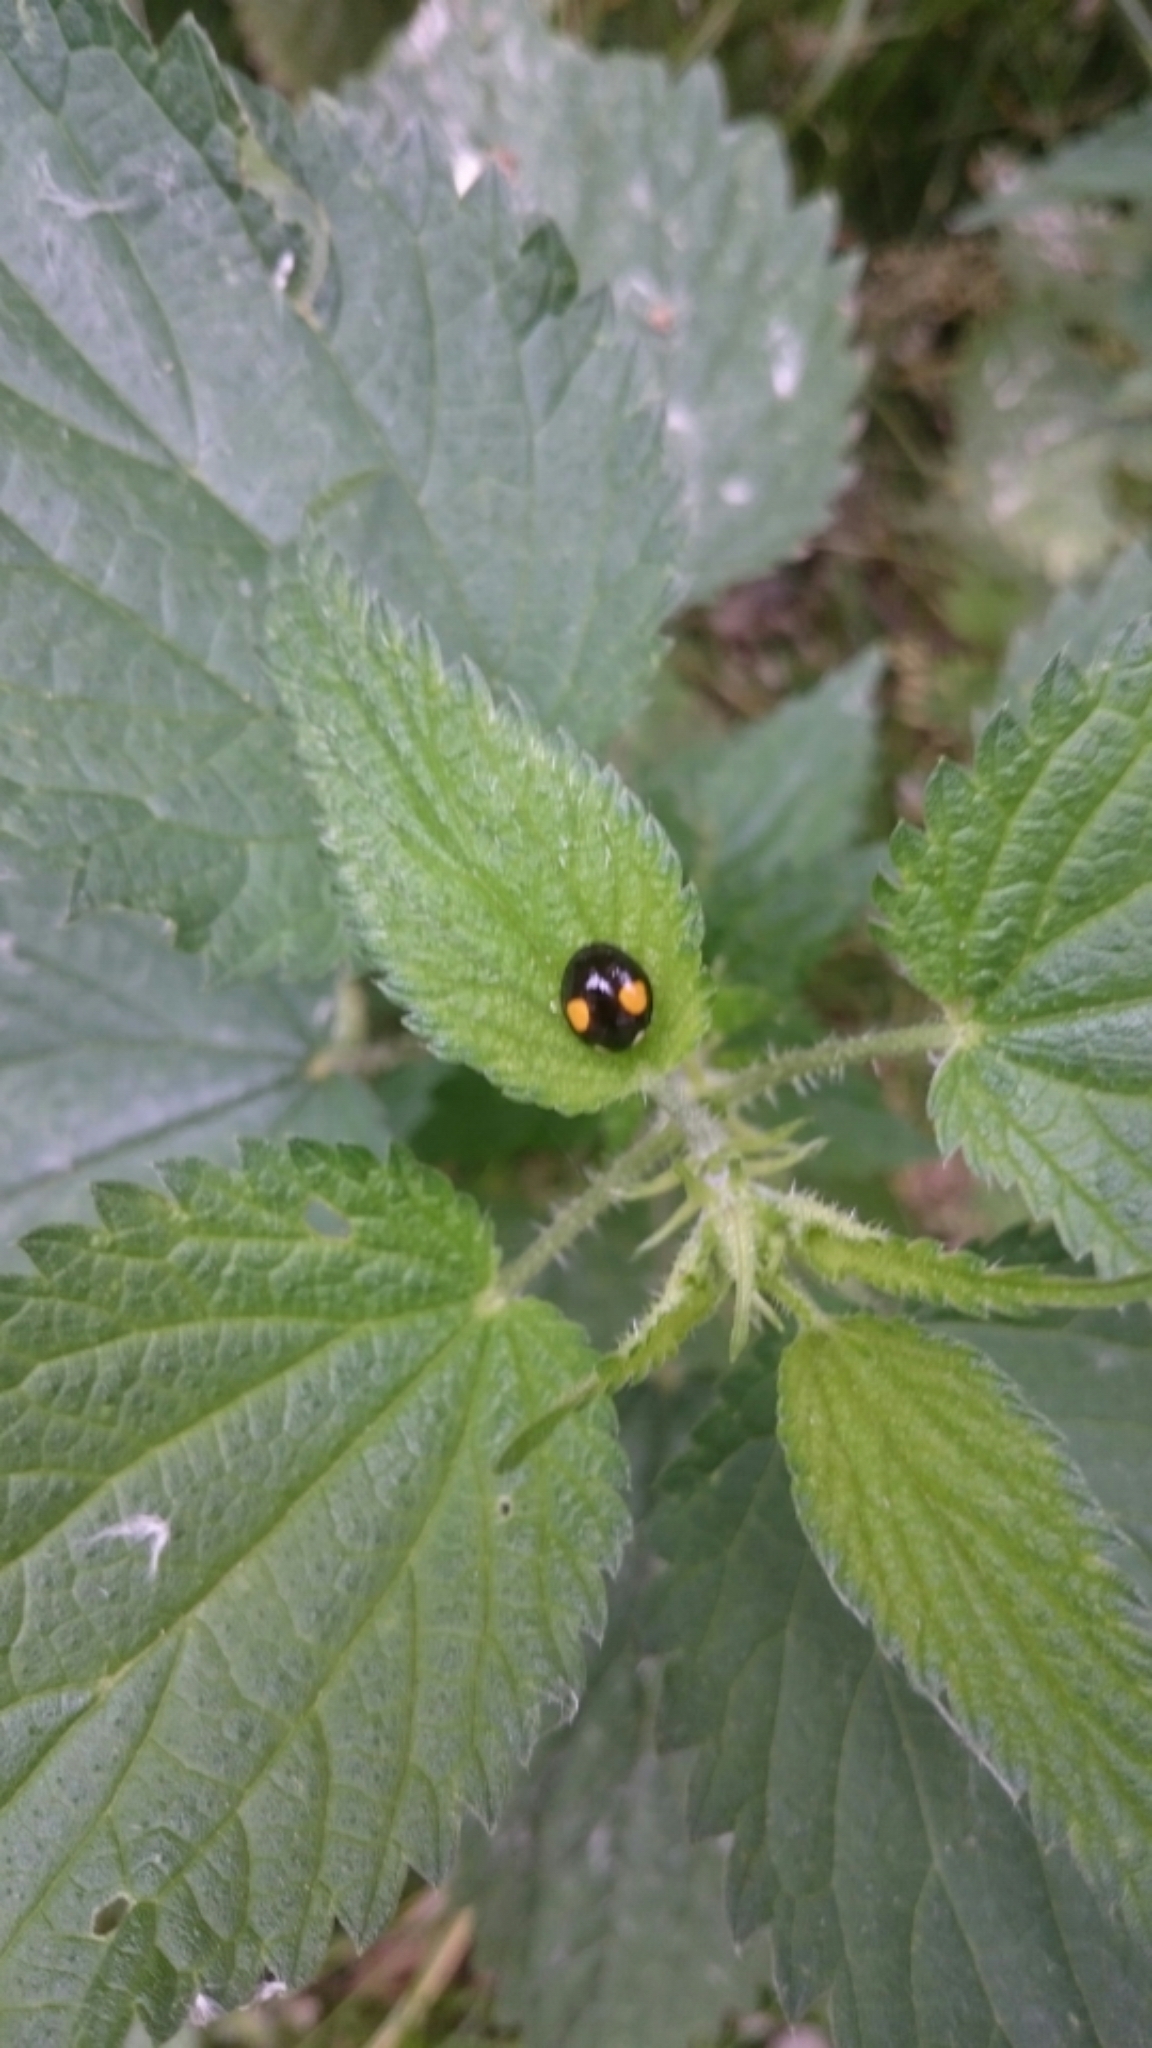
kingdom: Animalia
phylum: Arthropoda
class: Insecta
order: Coleoptera
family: Coccinellidae
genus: Harmonia
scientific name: Harmonia axyridis
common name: Harlequin ladybird
